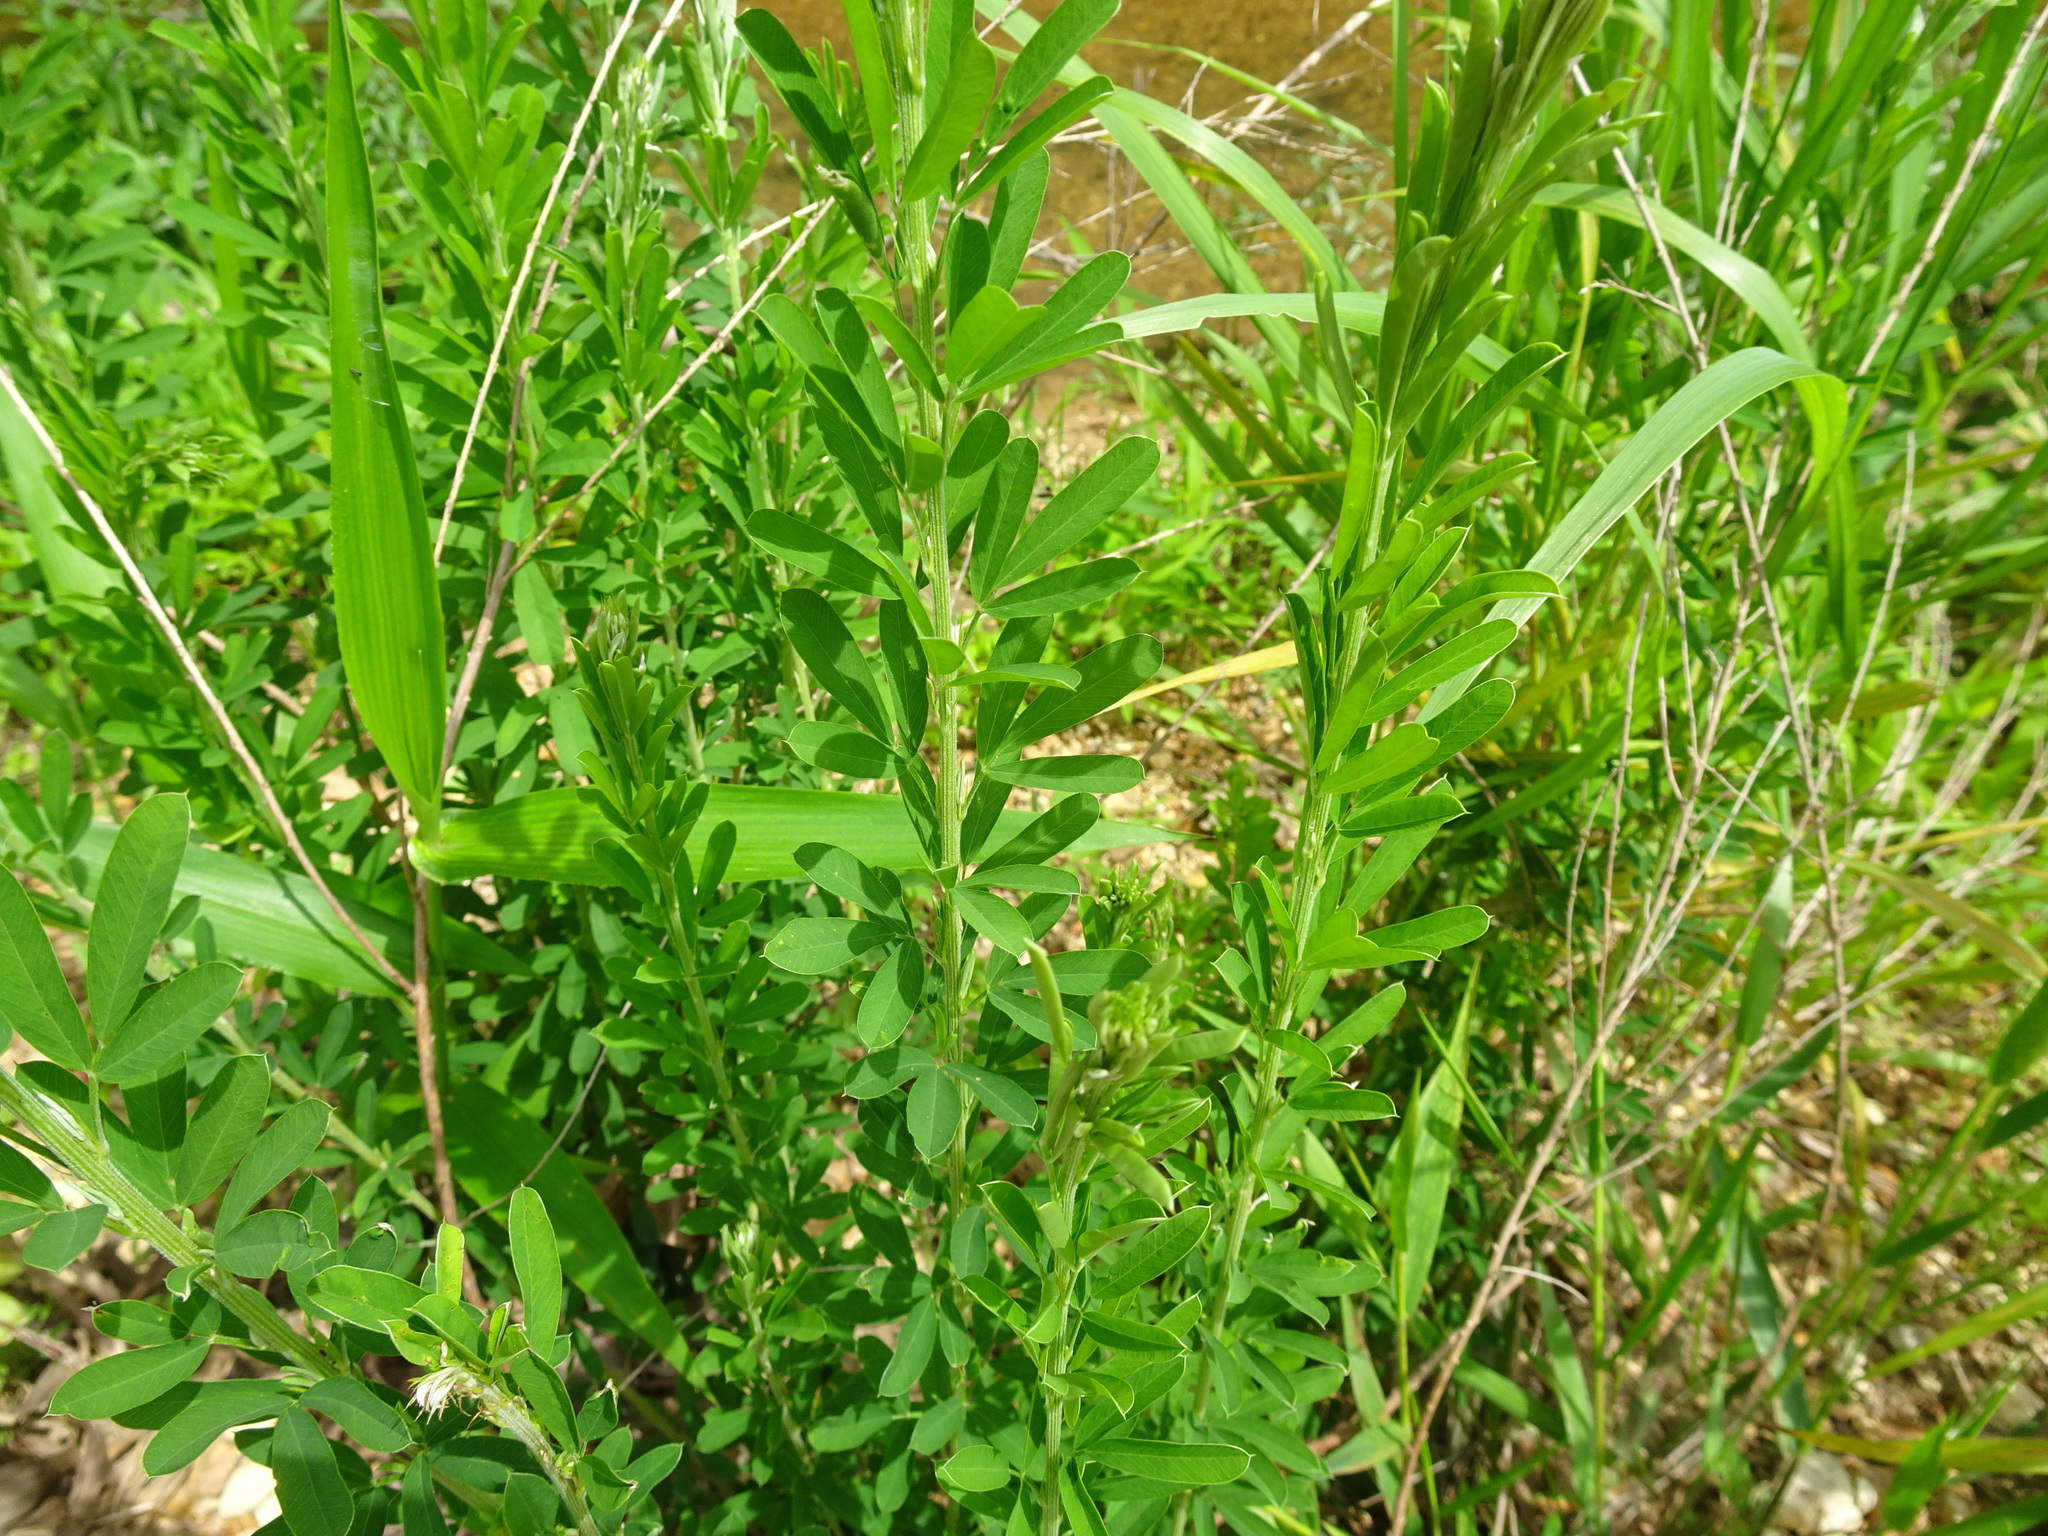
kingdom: Plantae
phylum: Tracheophyta
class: Magnoliopsida
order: Fabales
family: Fabaceae
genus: Lespedeza
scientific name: Lespedeza cuneata
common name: Chinese bush-clover
